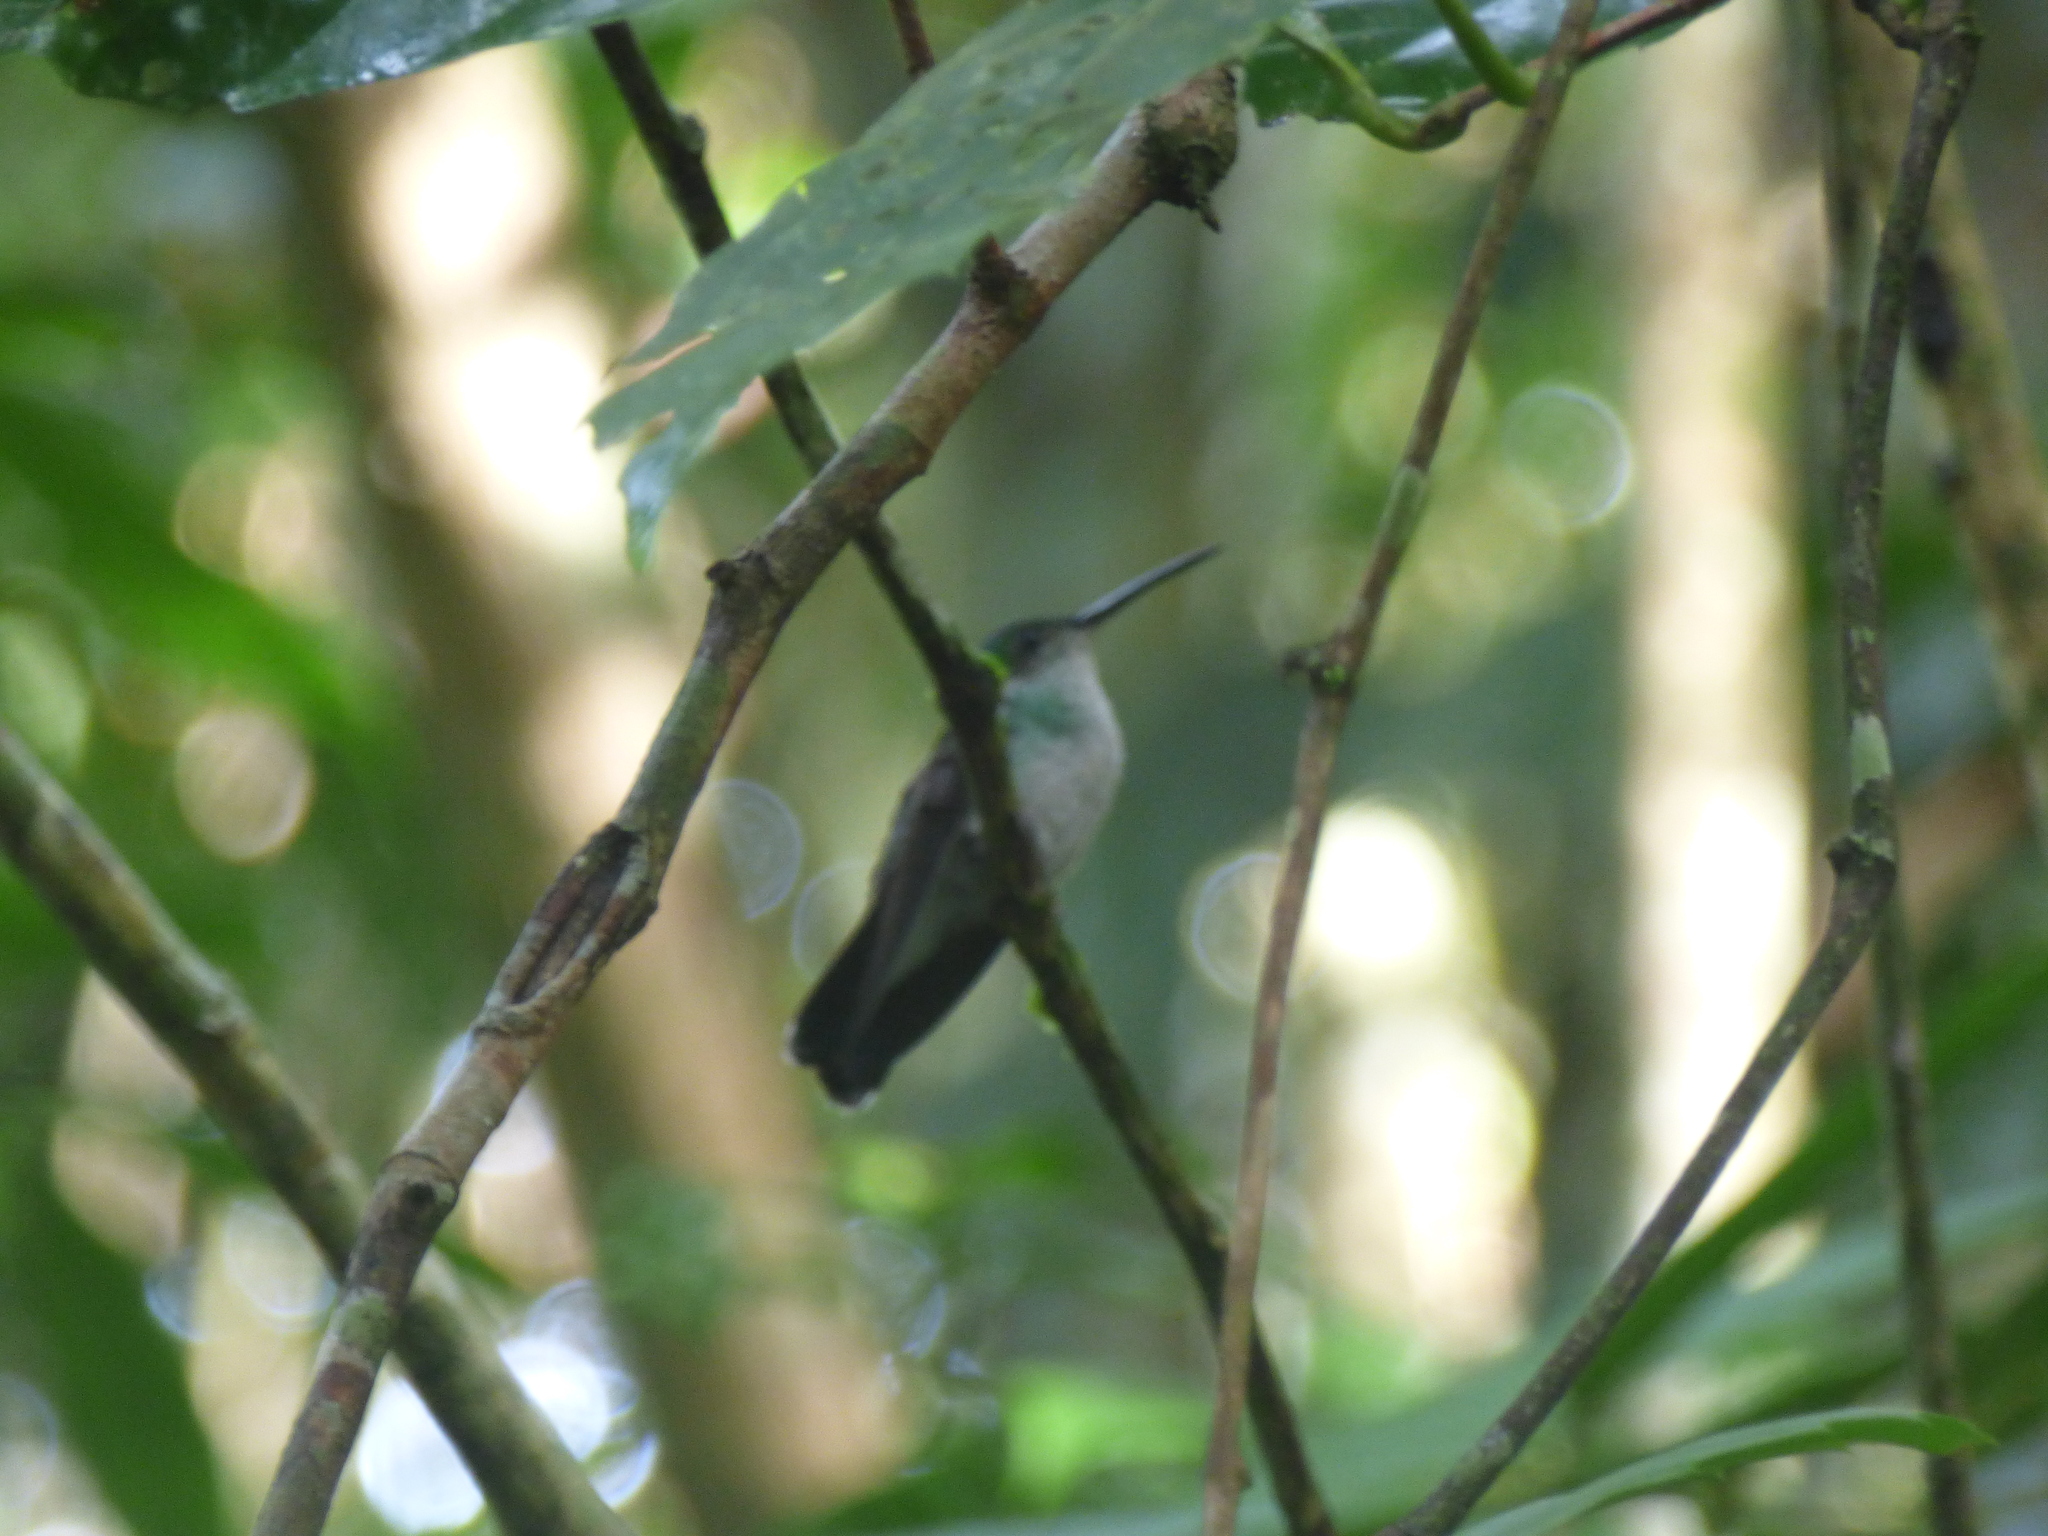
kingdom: Animalia
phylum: Chordata
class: Aves
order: Apodiformes
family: Trochilidae
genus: Chlorestes
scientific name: Chlorestes julie
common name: Violet-bellied hummingbird
